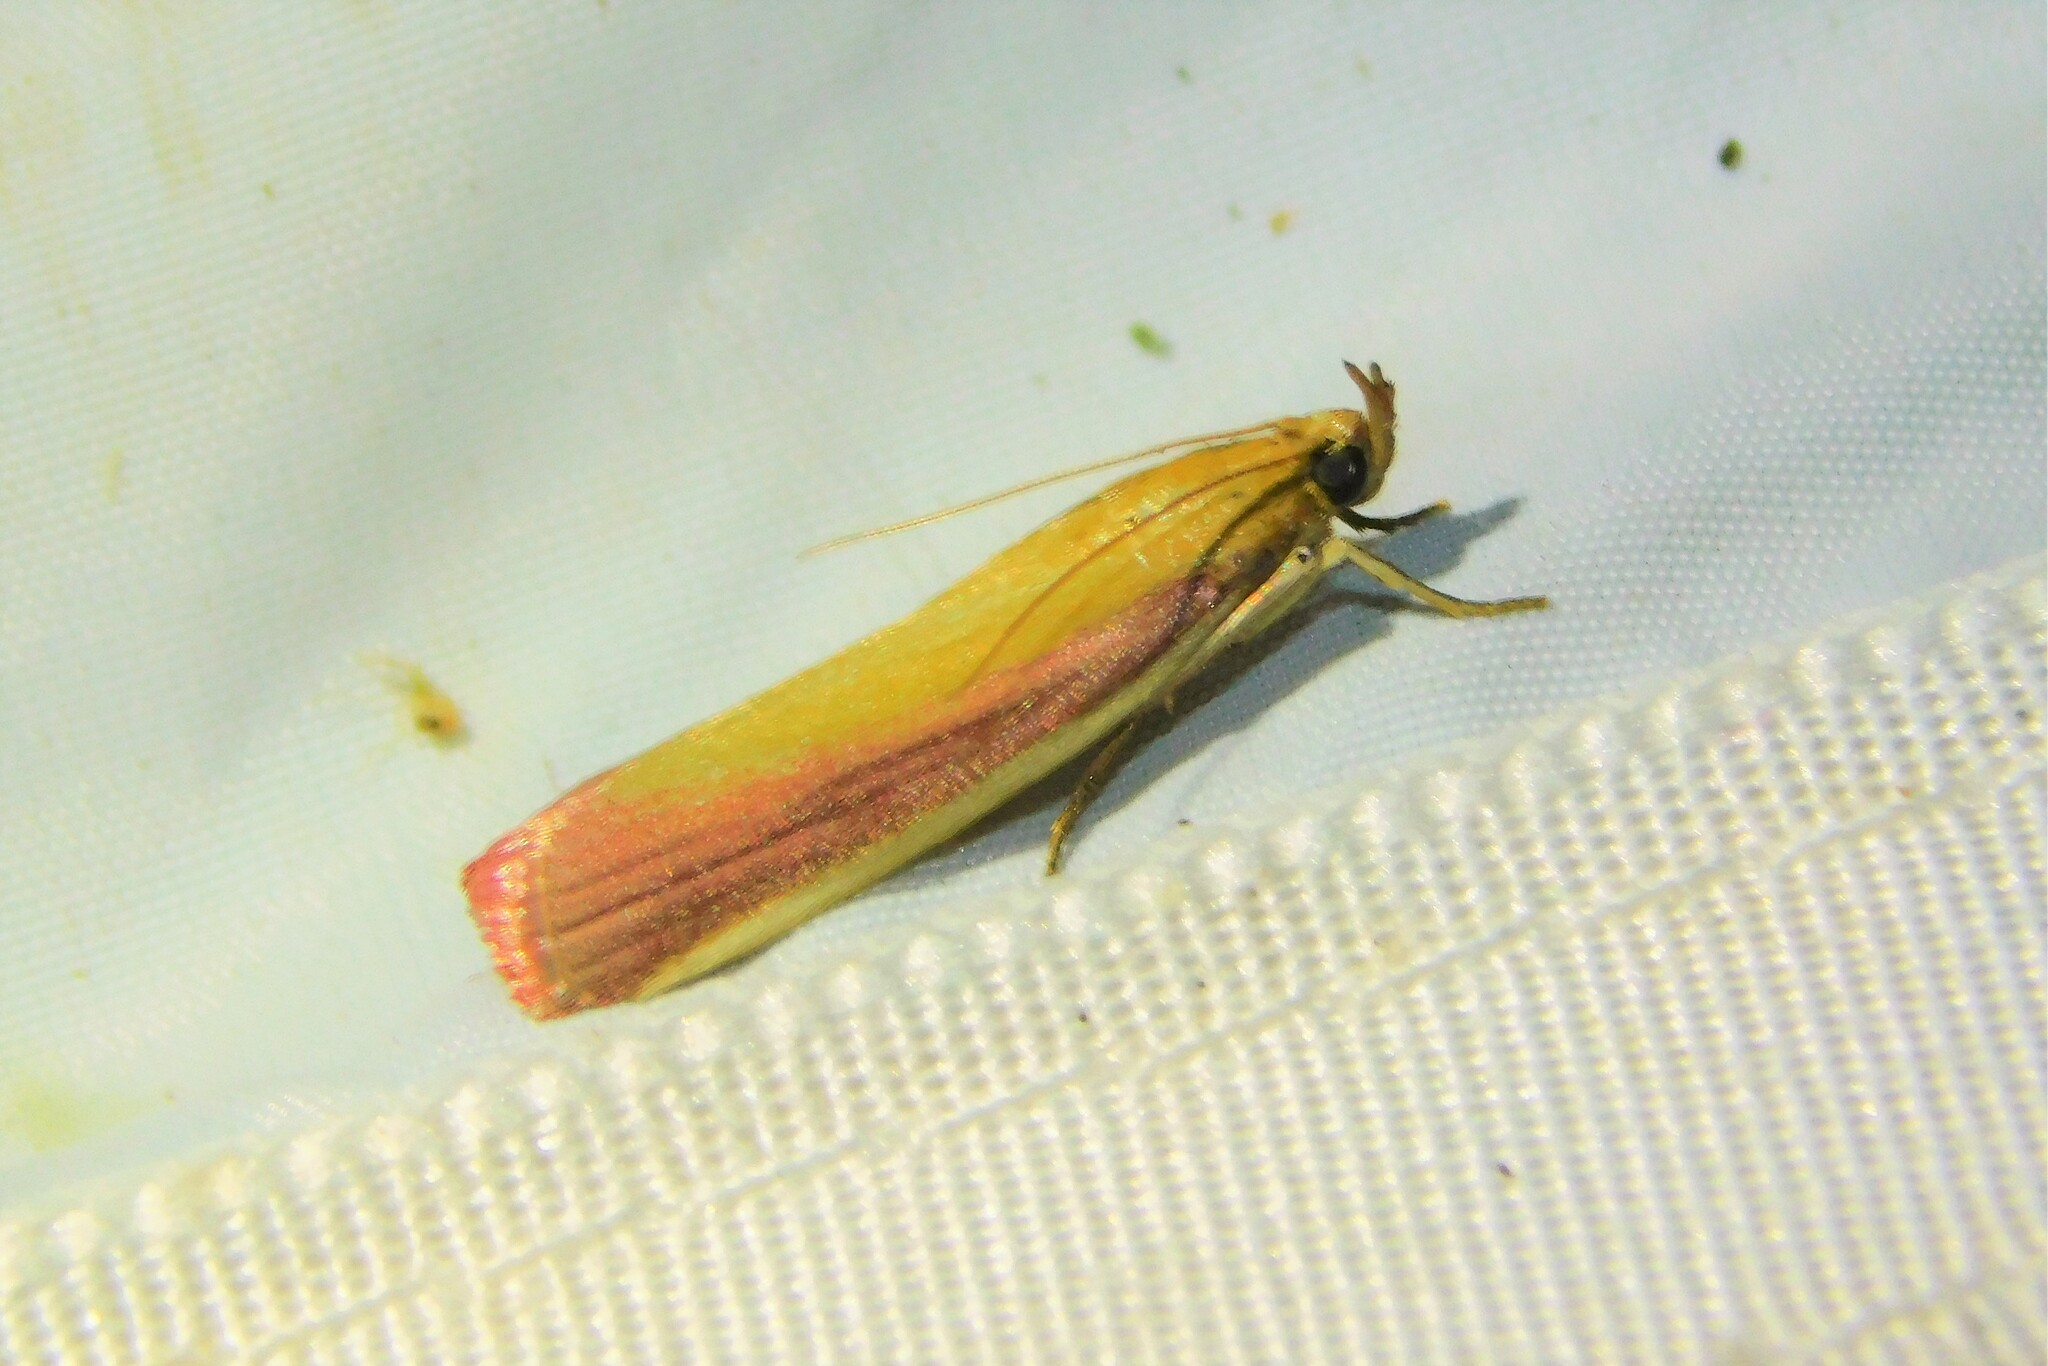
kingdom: Animalia
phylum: Arthropoda
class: Insecta
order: Lepidoptera
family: Pyralidae
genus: Oncocera
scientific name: Oncocera semirubella
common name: Rosy-striped knot-horn
